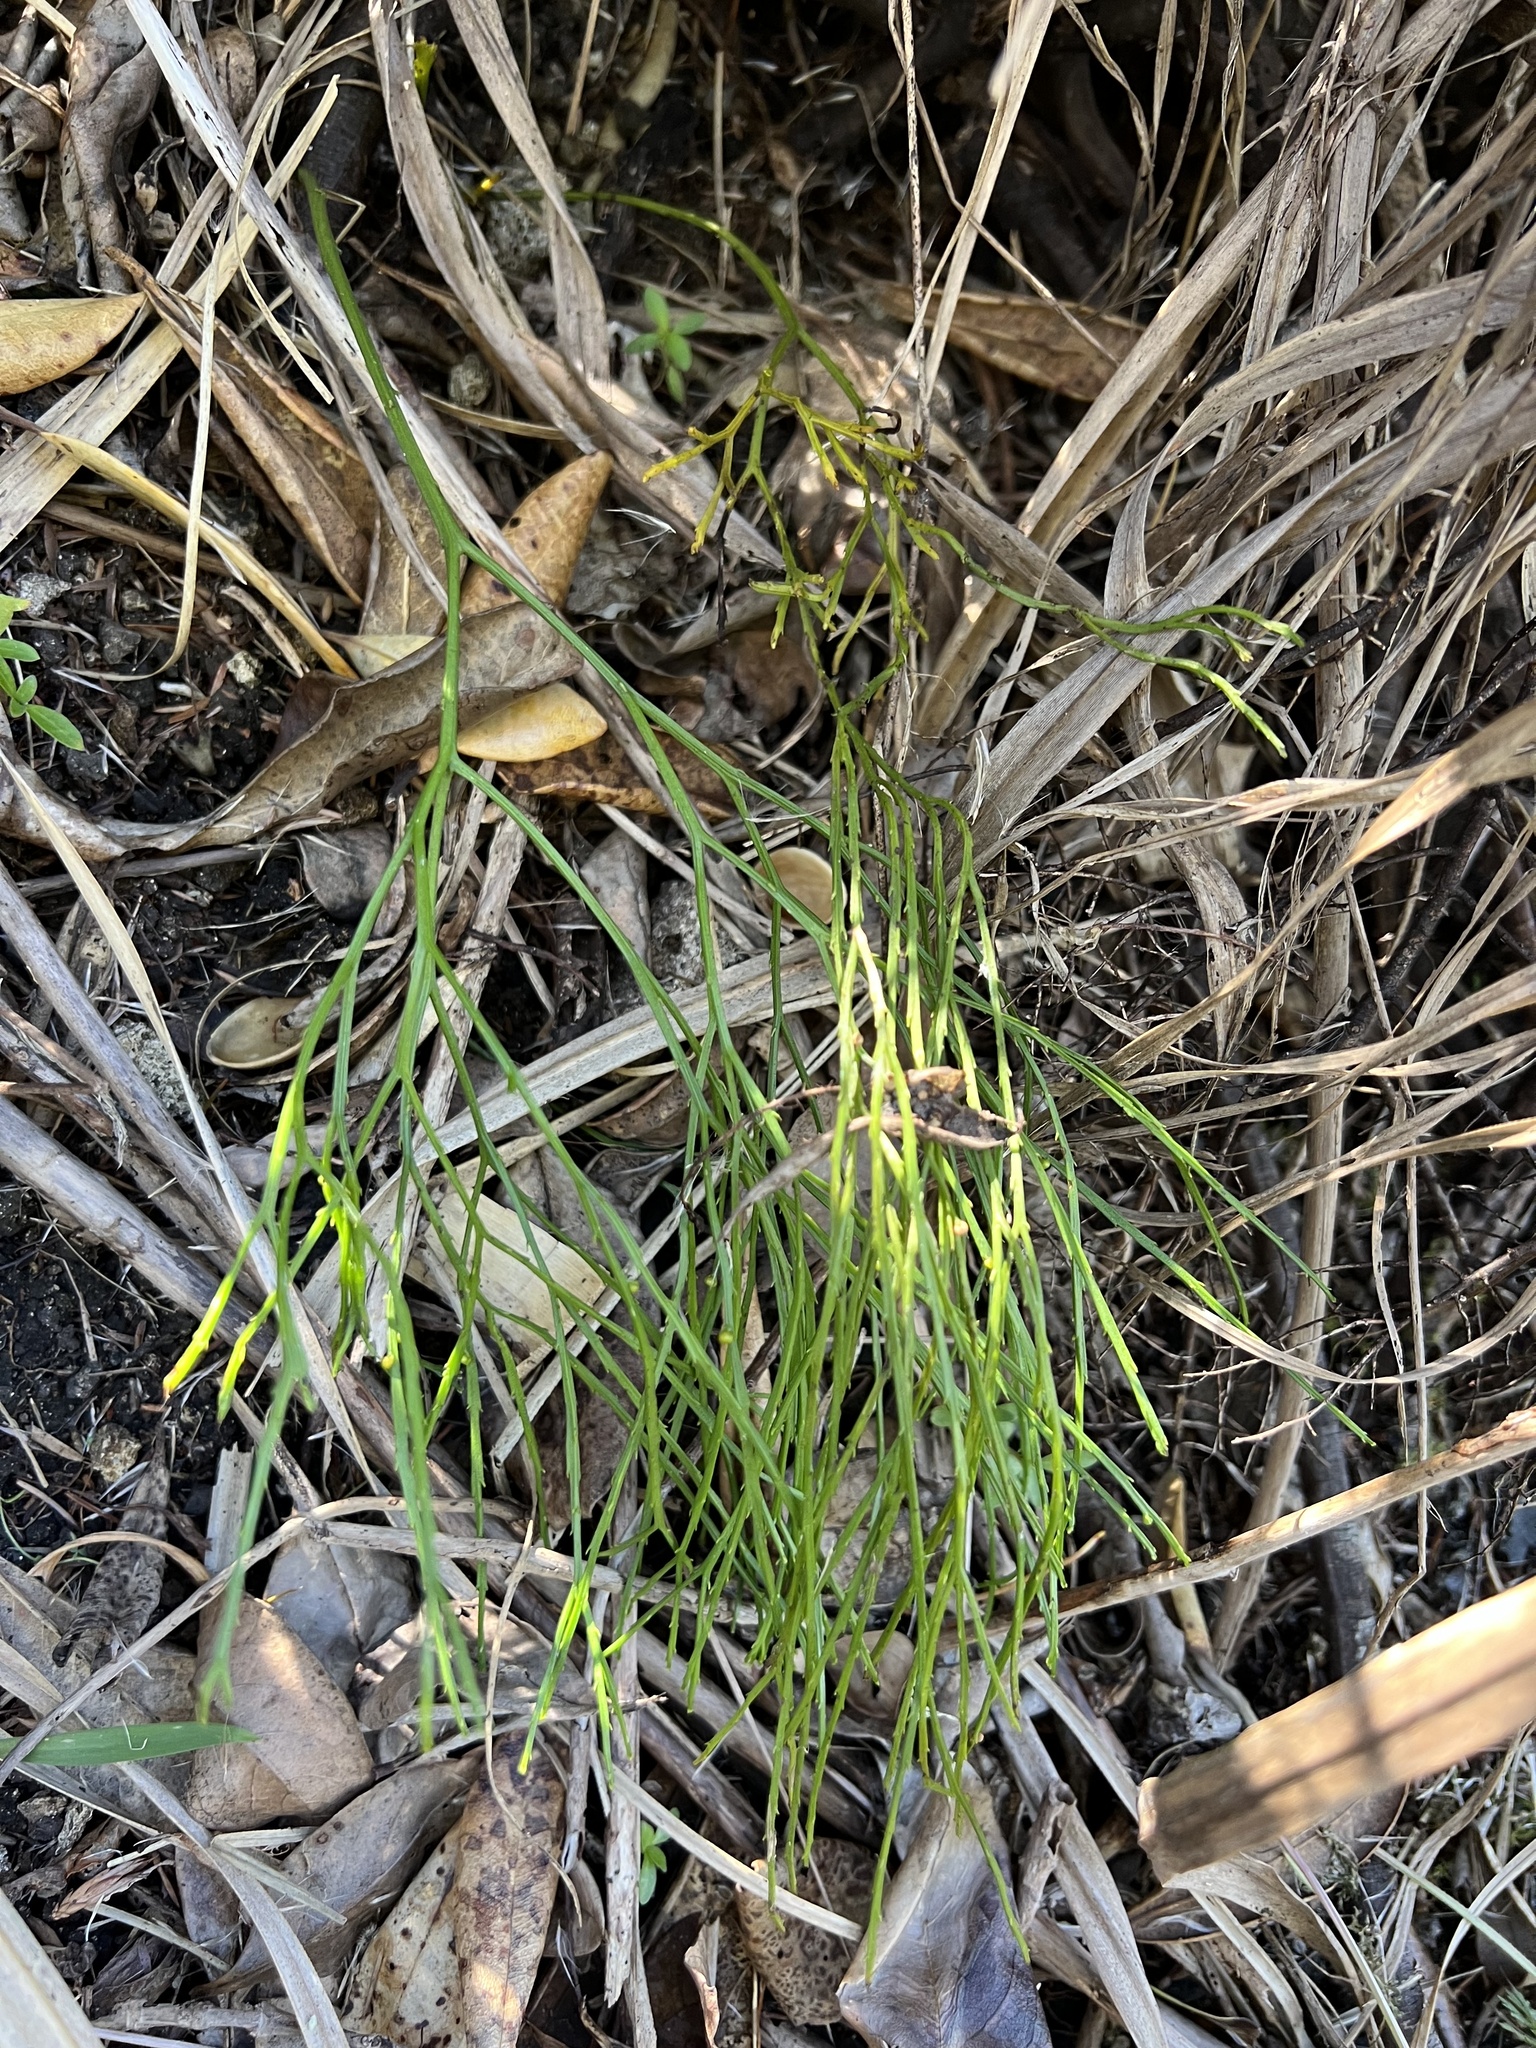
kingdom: Plantae
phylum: Tracheophyta
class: Polypodiopsida
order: Psilotales
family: Psilotaceae
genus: Psilotum
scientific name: Psilotum nudum
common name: Skeleton fork fern
